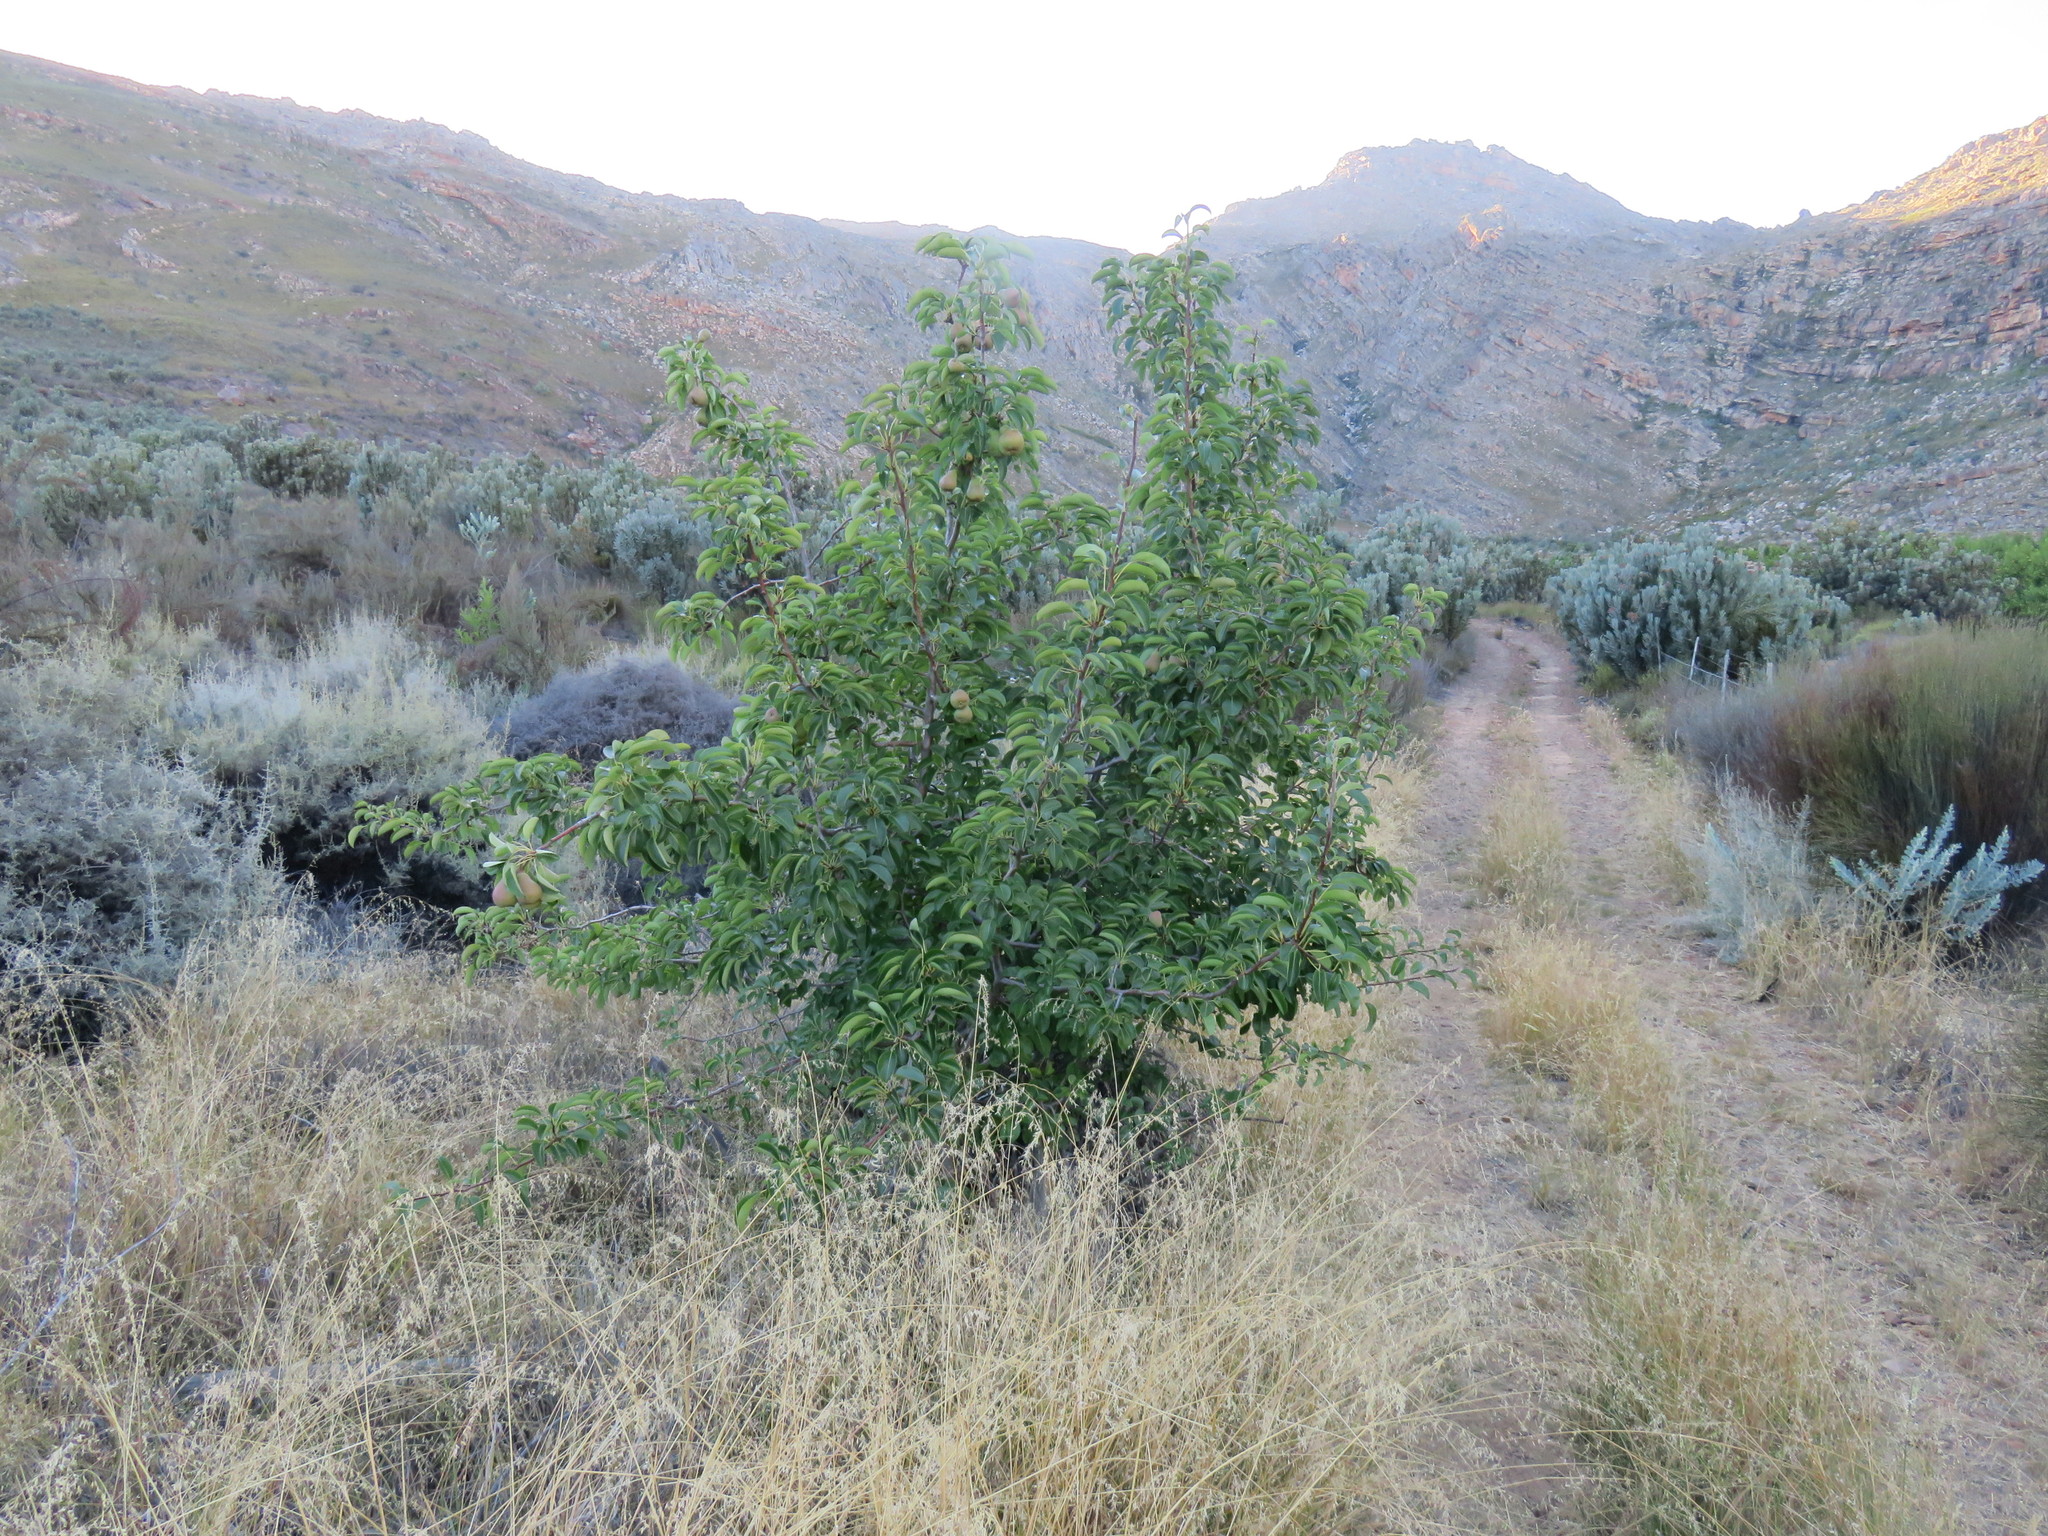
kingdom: Plantae
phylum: Tracheophyta
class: Magnoliopsida
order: Rosales
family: Rosaceae
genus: Pyrus
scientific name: Pyrus communis
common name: Pear
